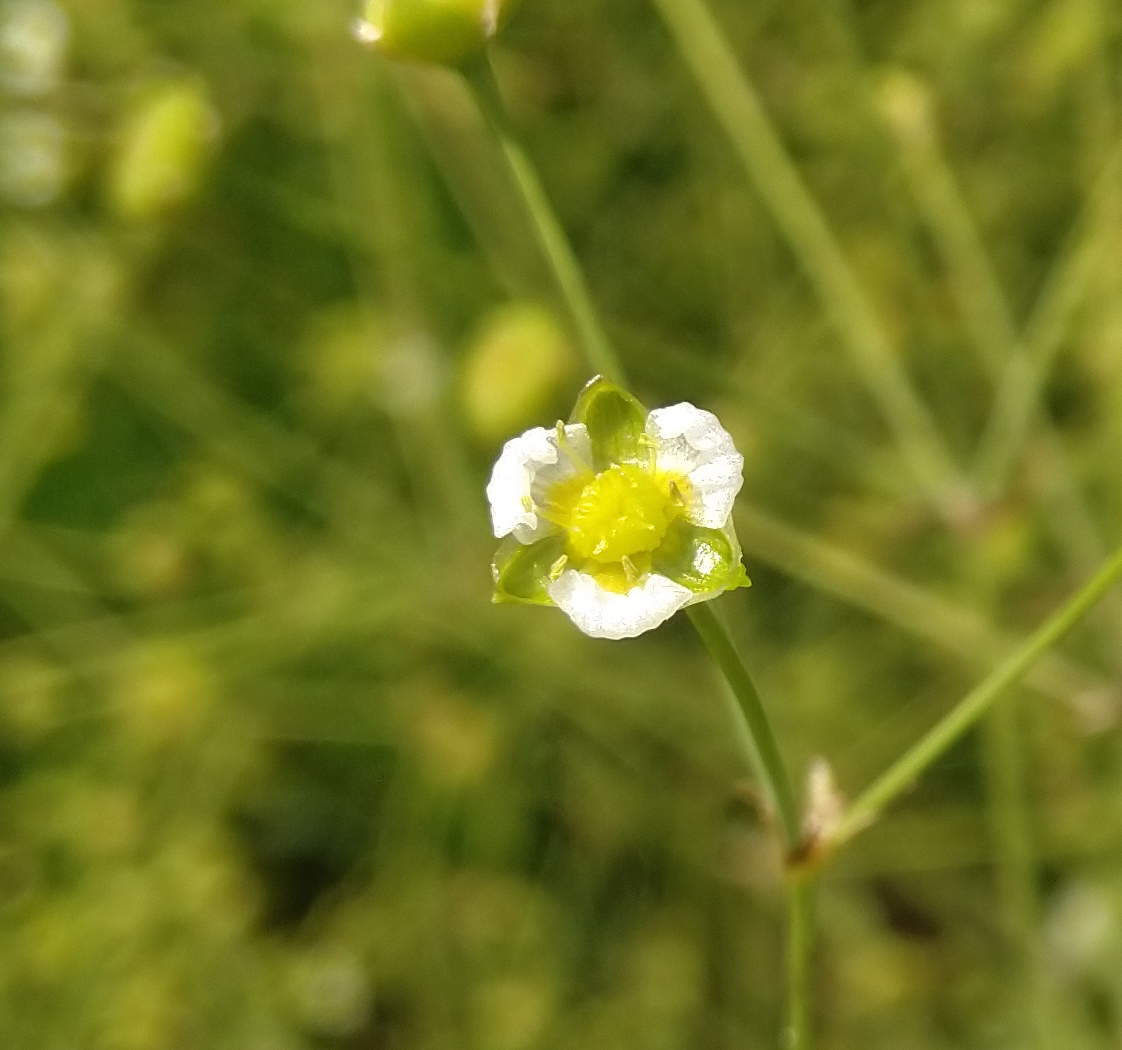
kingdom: Plantae
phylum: Tracheophyta
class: Liliopsida
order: Alismatales
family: Alismataceae
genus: Alisma
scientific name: Alisma triviale
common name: Northern water-plantain
